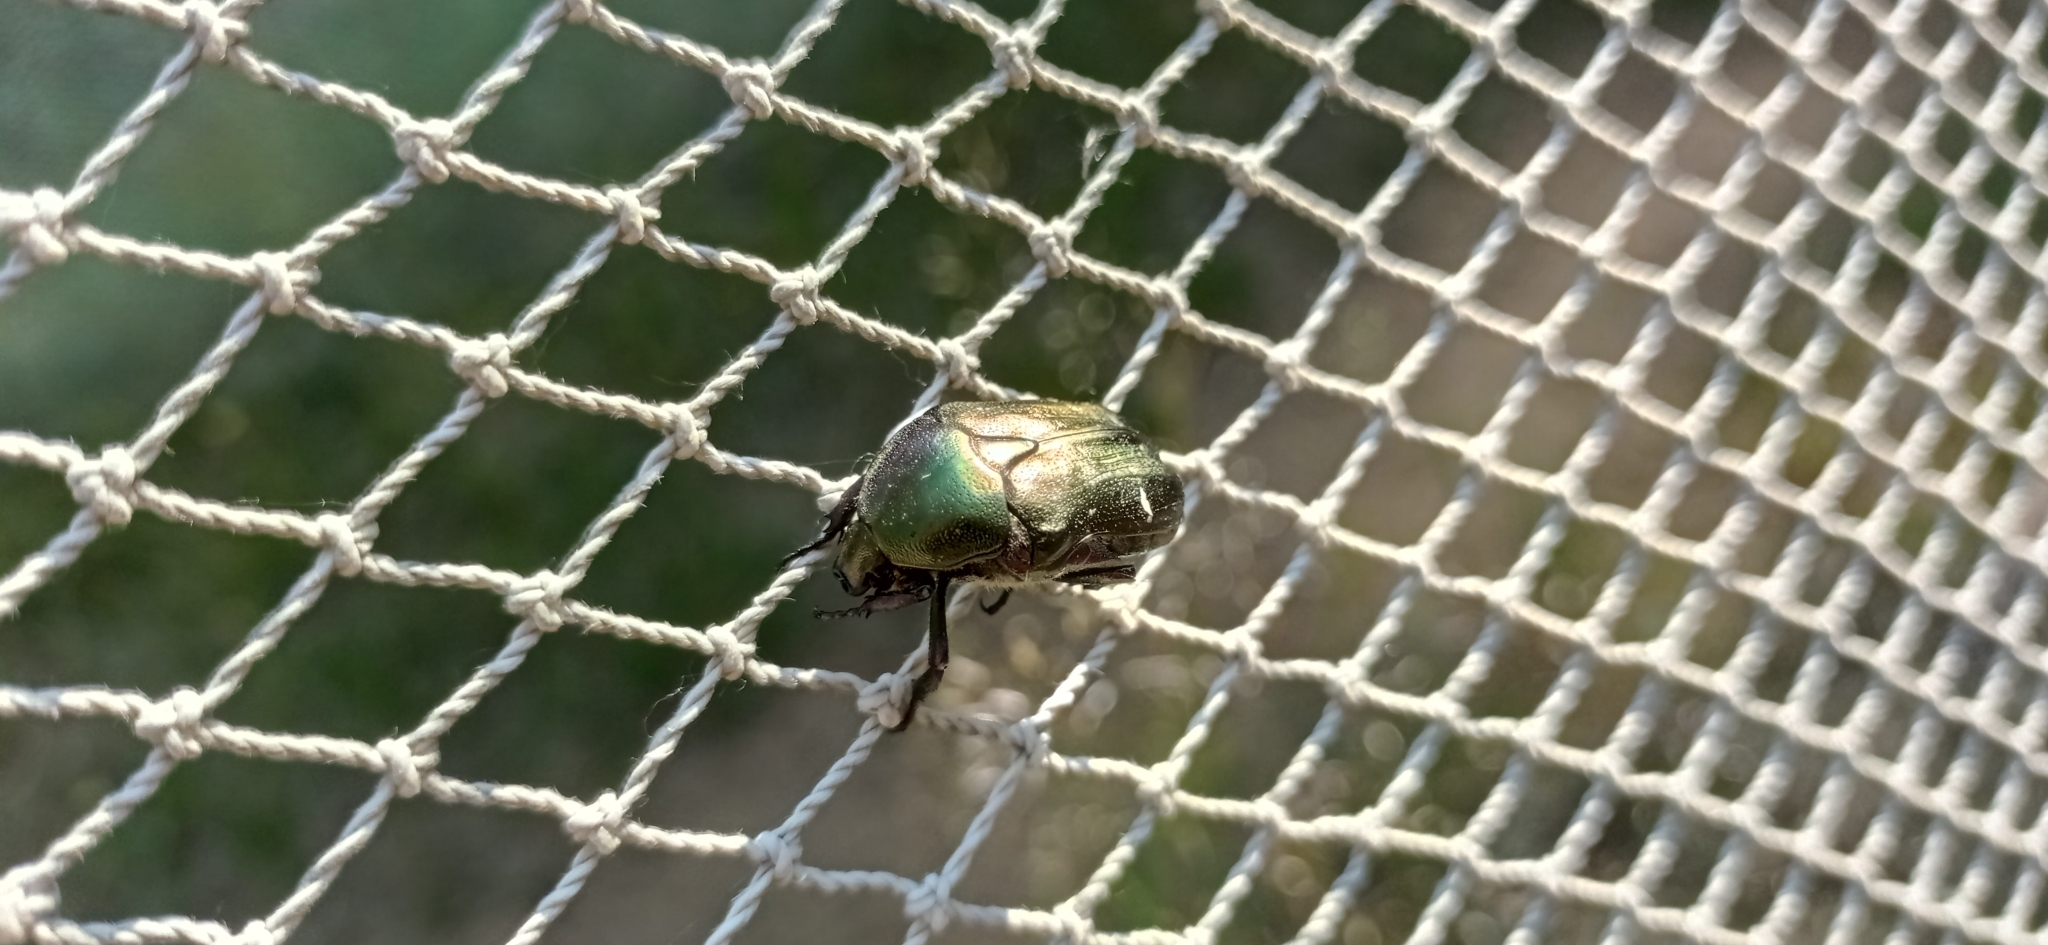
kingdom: Animalia
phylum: Arthropoda
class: Insecta
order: Coleoptera
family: Scarabaeidae
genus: Cetonia
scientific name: Cetonia aurata
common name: Rose chafer
